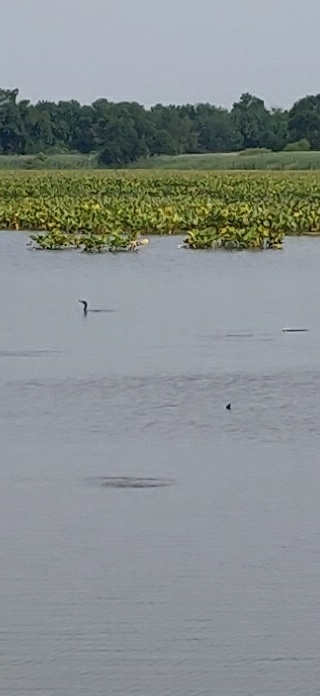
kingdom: Animalia
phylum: Chordata
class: Aves
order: Suliformes
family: Phalacrocoracidae
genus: Phalacrocorax
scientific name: Phalacrocorax auritus
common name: Double-crested cormorant
